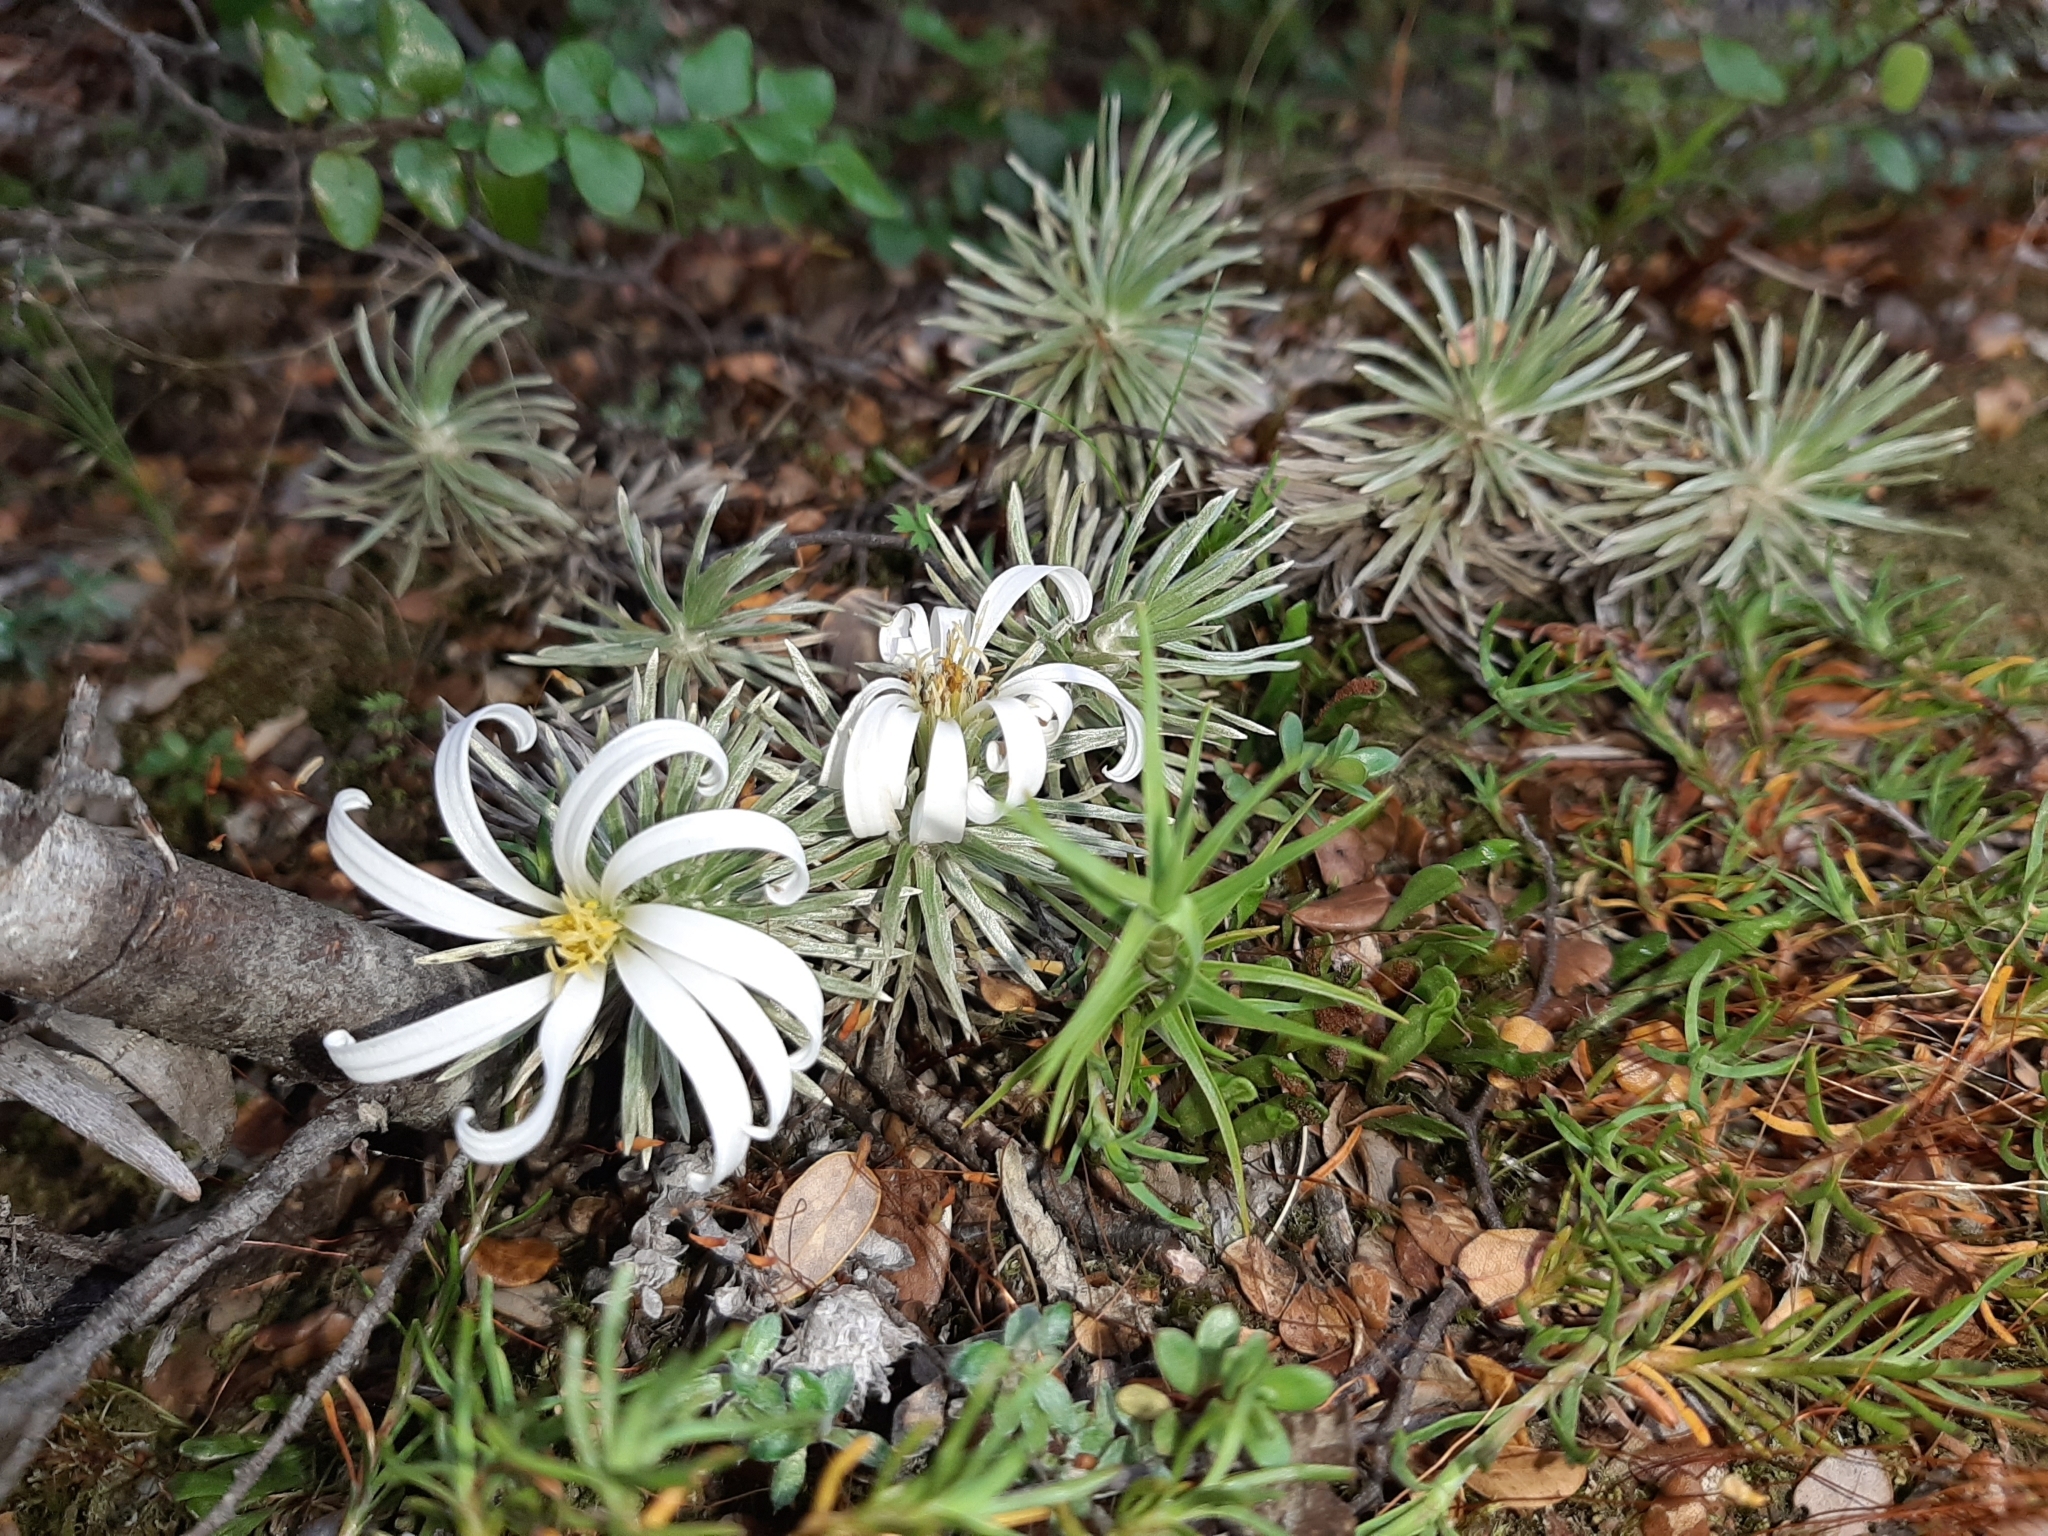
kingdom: Plantae
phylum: Tracheophyta
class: Magnoliopsida
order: Asterales
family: Asteraceae
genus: Celmisia
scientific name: Celmisia sessiliflora
